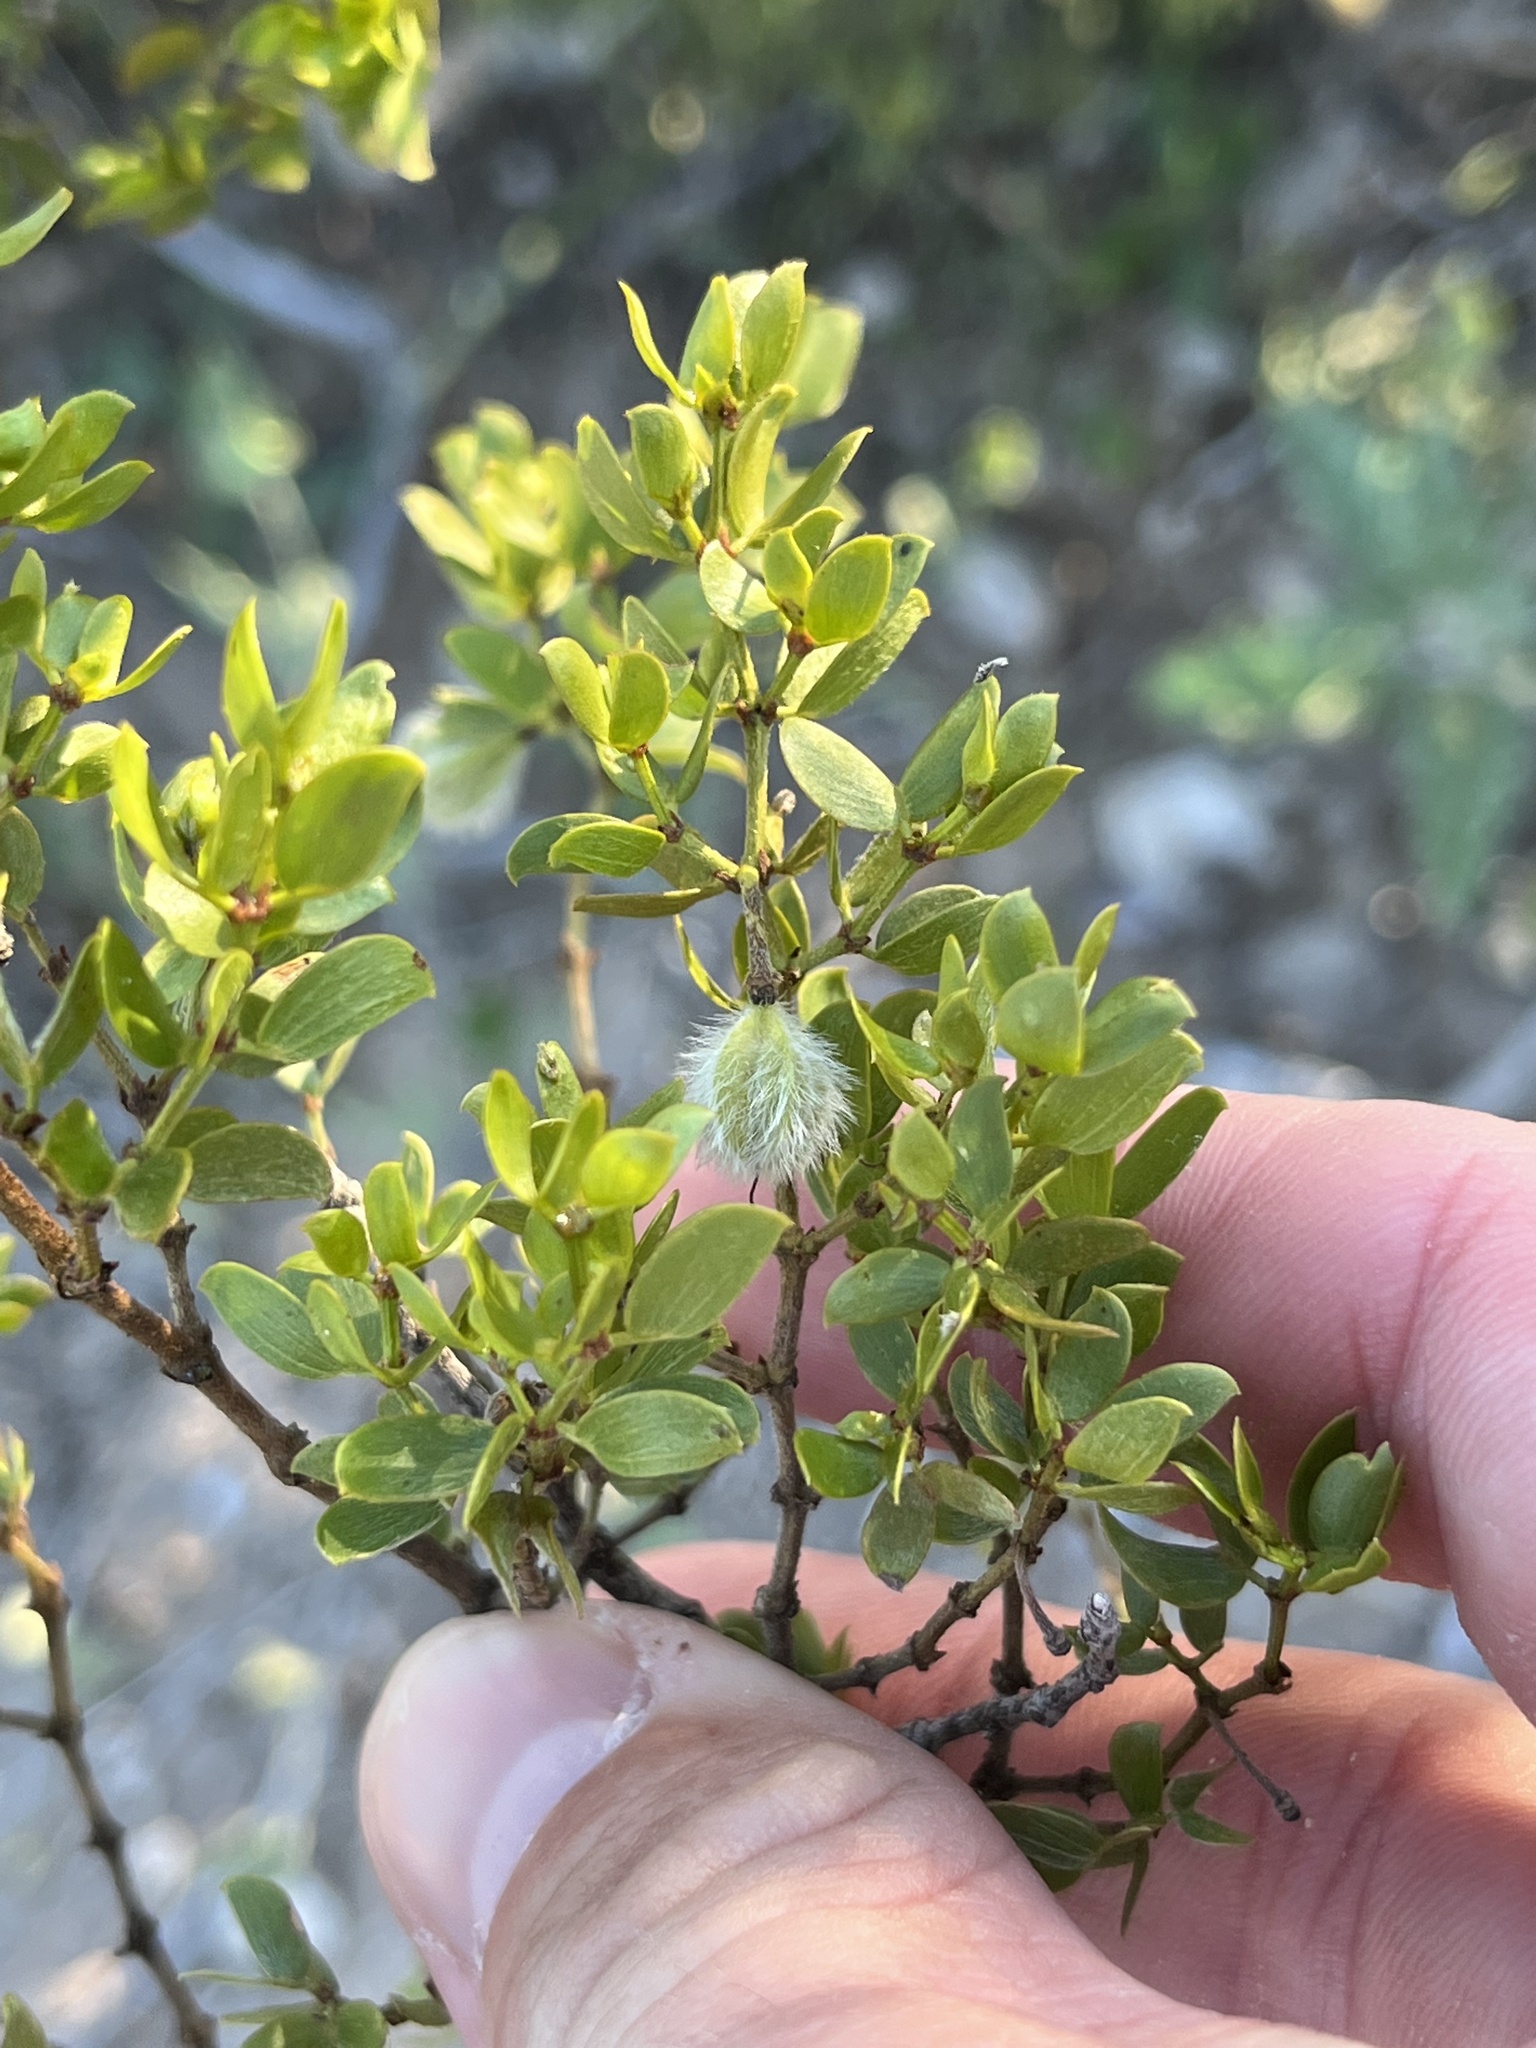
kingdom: Plantae
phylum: Tracheophyta
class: Magnoliopsida
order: Zygophyllales
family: Zygophyllaceae
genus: Larrea
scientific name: Larrea tridentata
